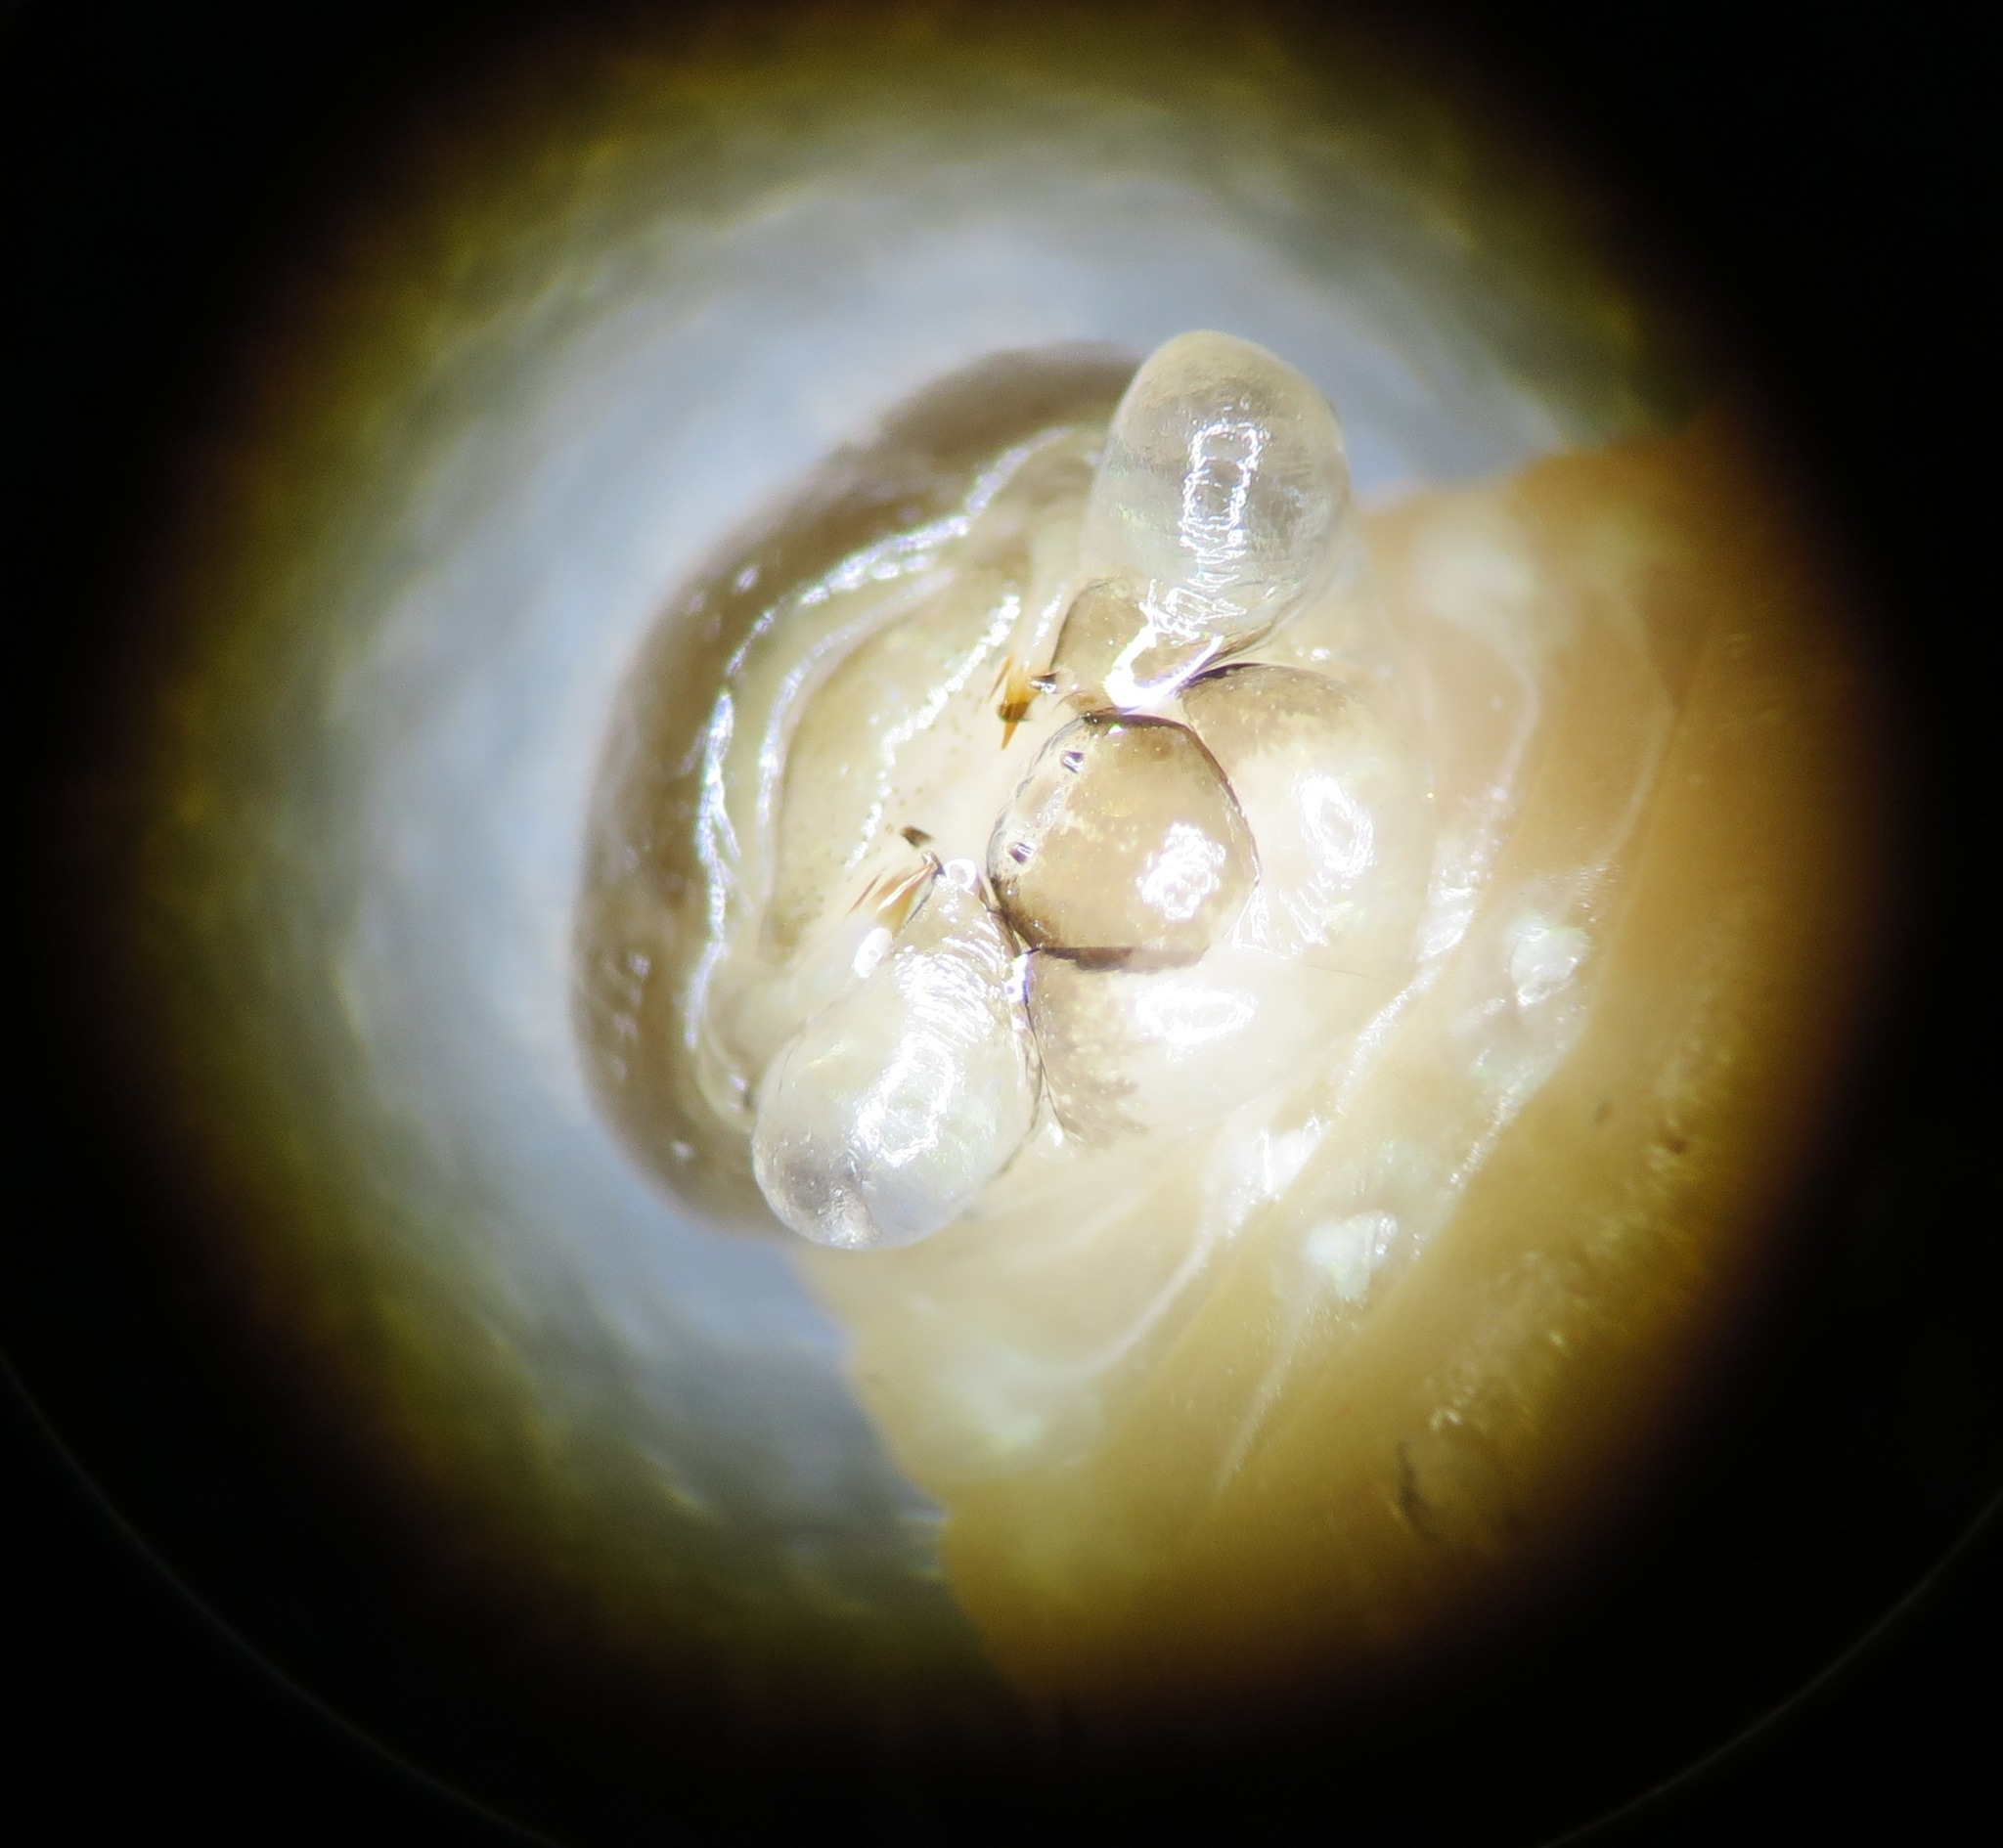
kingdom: Animalia
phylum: Arthropoda
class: Insecta
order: Hymenoptera
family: Eumenidae
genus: Polistes
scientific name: Polistes dominula
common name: Paper wasp
